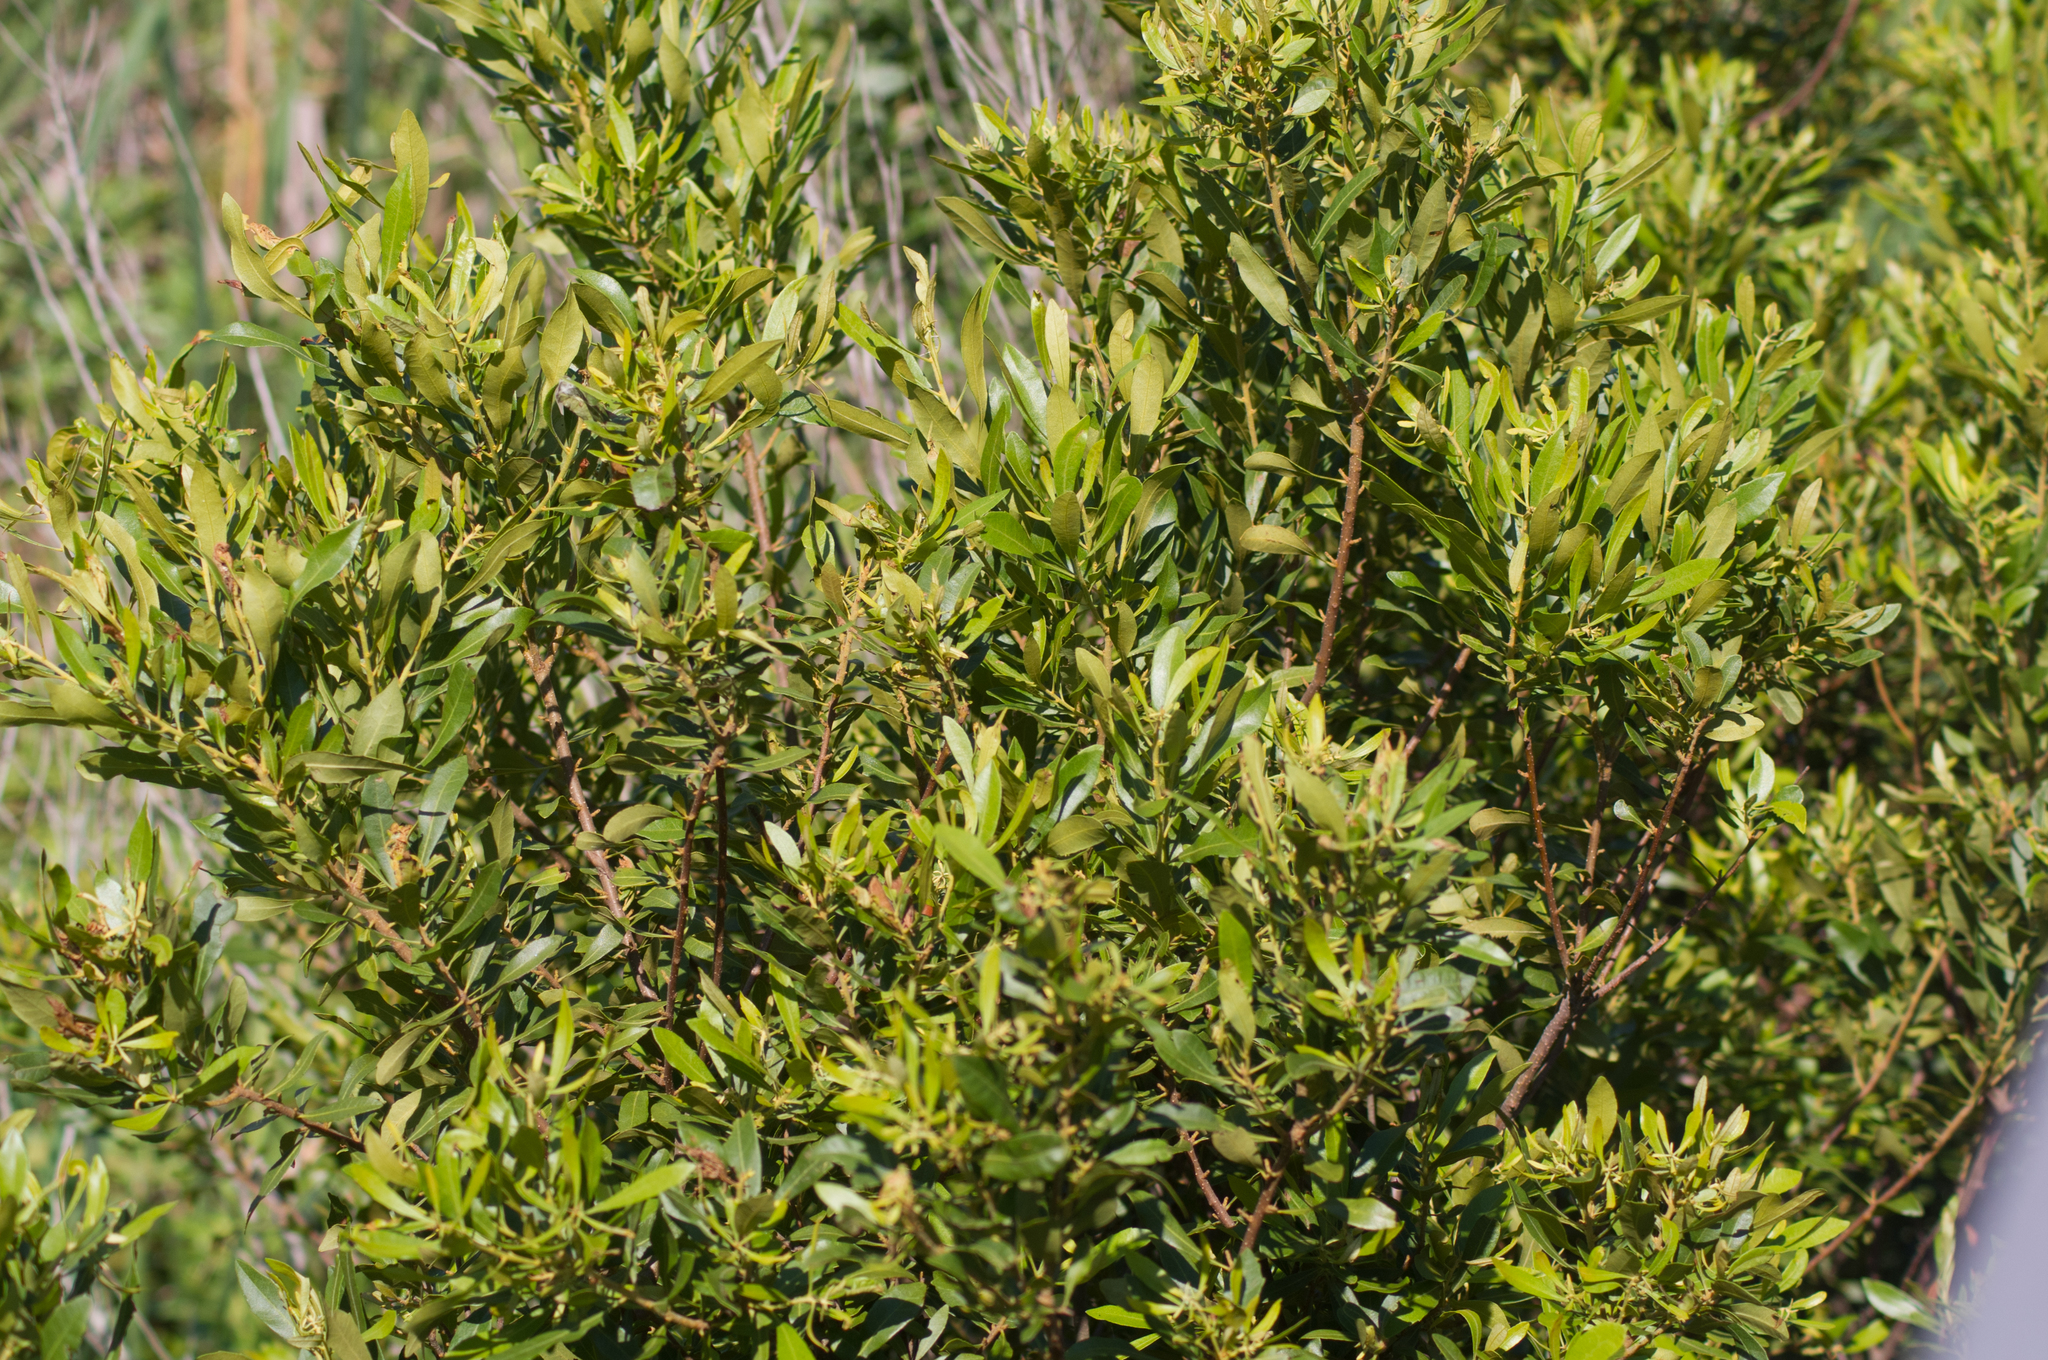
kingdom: Plantae
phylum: Tracheophyta
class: Magnoliopsida
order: Fagales
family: Myricaceae
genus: Morella
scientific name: Morella cerifera
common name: Wax myrtle
